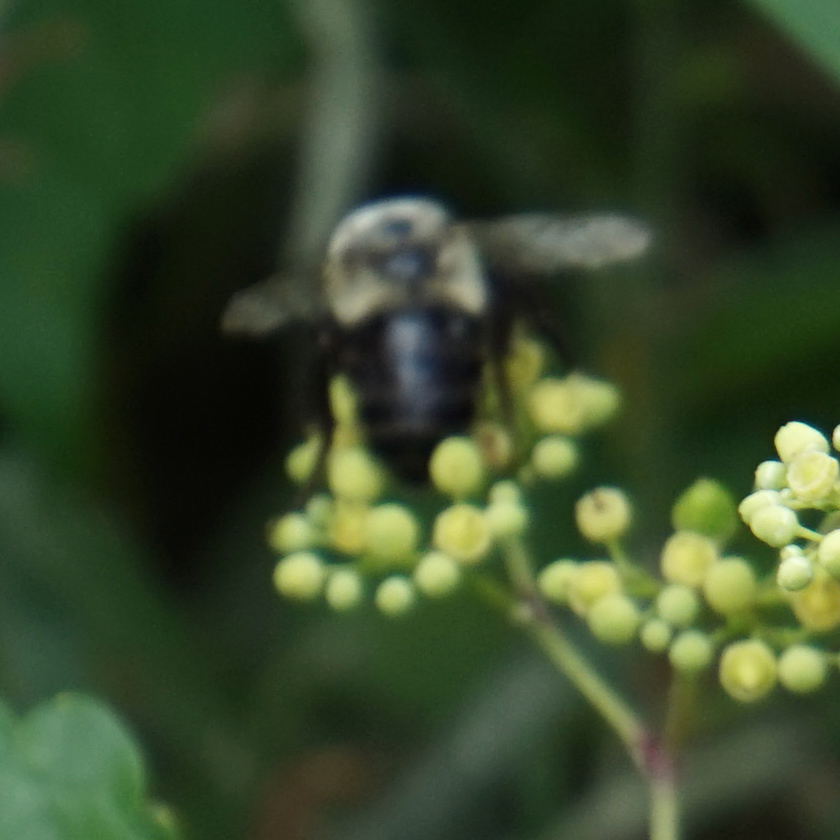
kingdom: Animalia
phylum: Arthropoda
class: Insecta
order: Hymenoptera
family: Apidae
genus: Bombus
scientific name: Bombus impatiens
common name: Common eastern bumble bee
